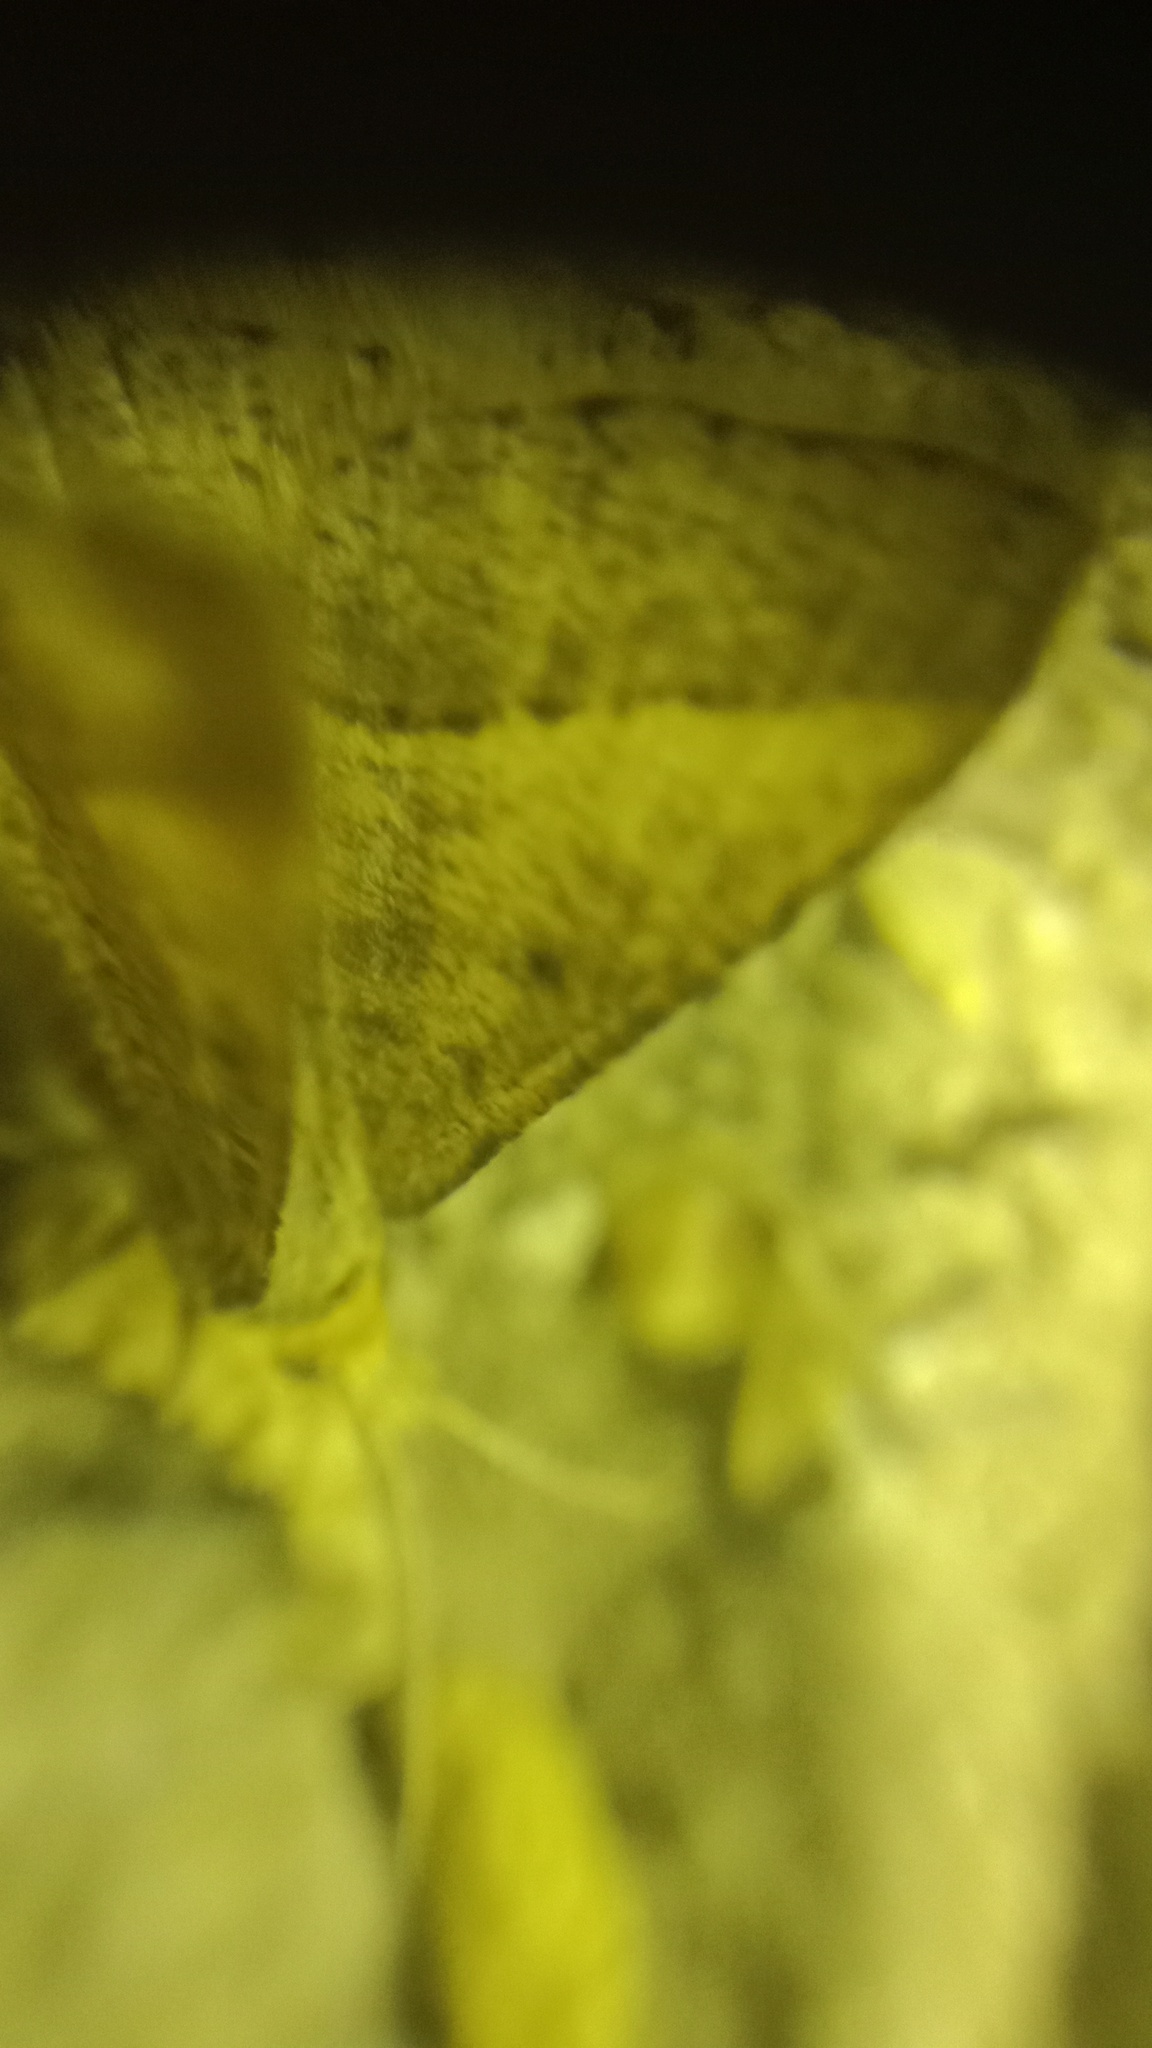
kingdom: Animalia
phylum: Arthropoda
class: Insecta
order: Lepidoptera
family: Geometridae
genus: Tephrina
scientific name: Tephrina arenacearia
